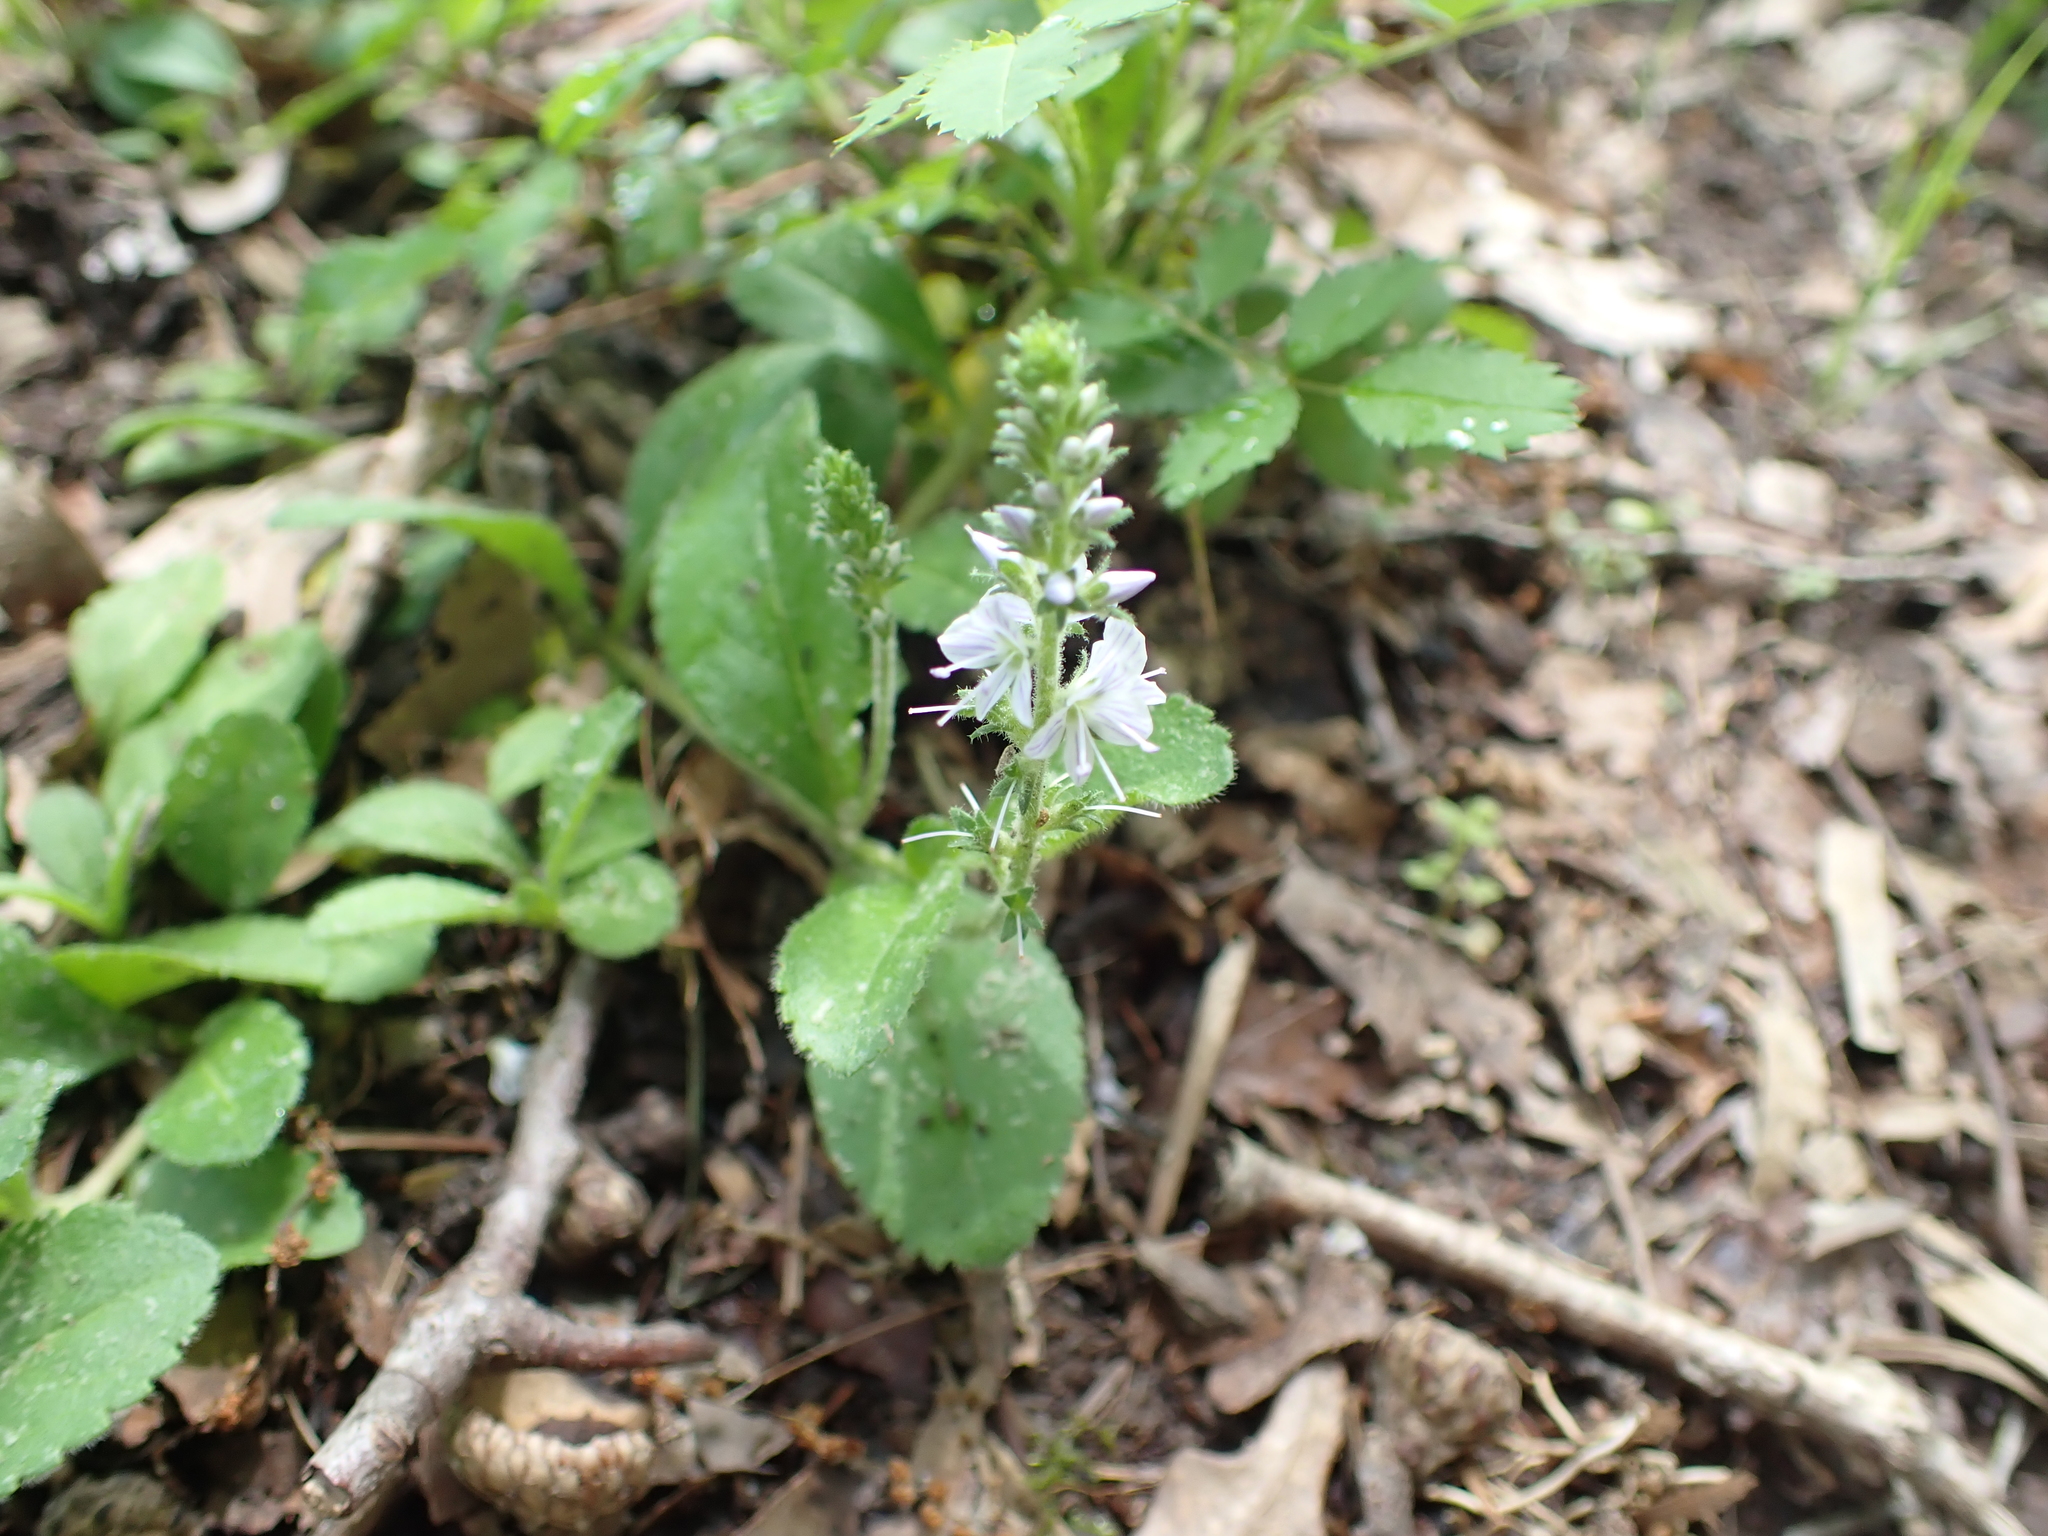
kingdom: Plantae
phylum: Tracheophyta
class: Magnoliopsida
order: Lamiales
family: Plantaginaceae
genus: Veronica
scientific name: Veronica officinalis
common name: Common speedwell
